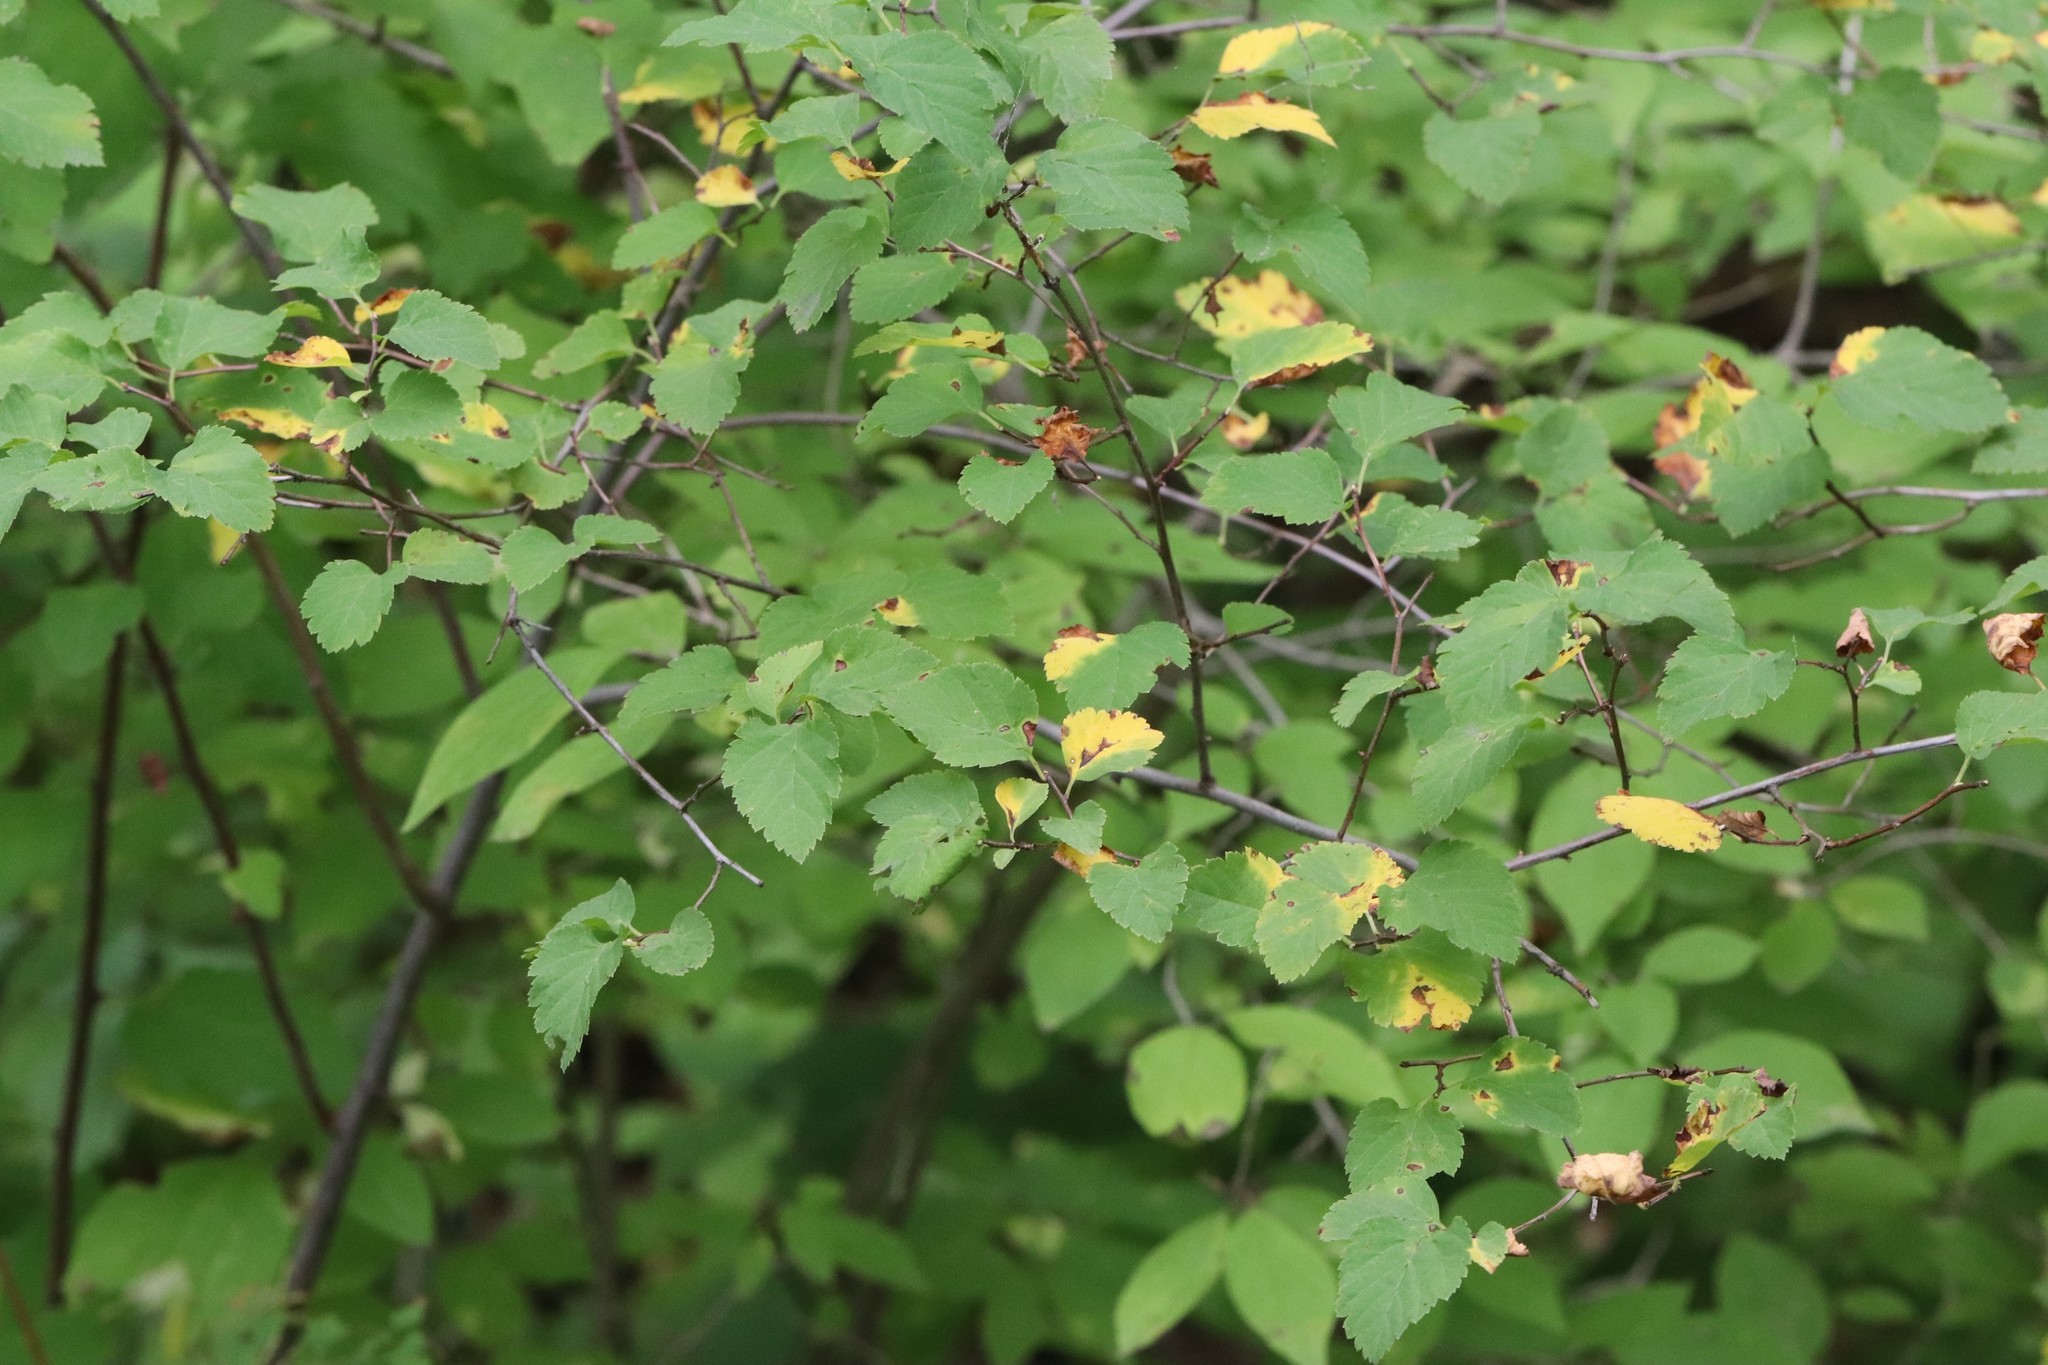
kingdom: Plantae
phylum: Tracheophyta
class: Magnoliopsida
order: Rosales
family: Rosaceae
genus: Spiraea
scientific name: Spiraea chamaedryfolia
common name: Elm-leaved spiraea
